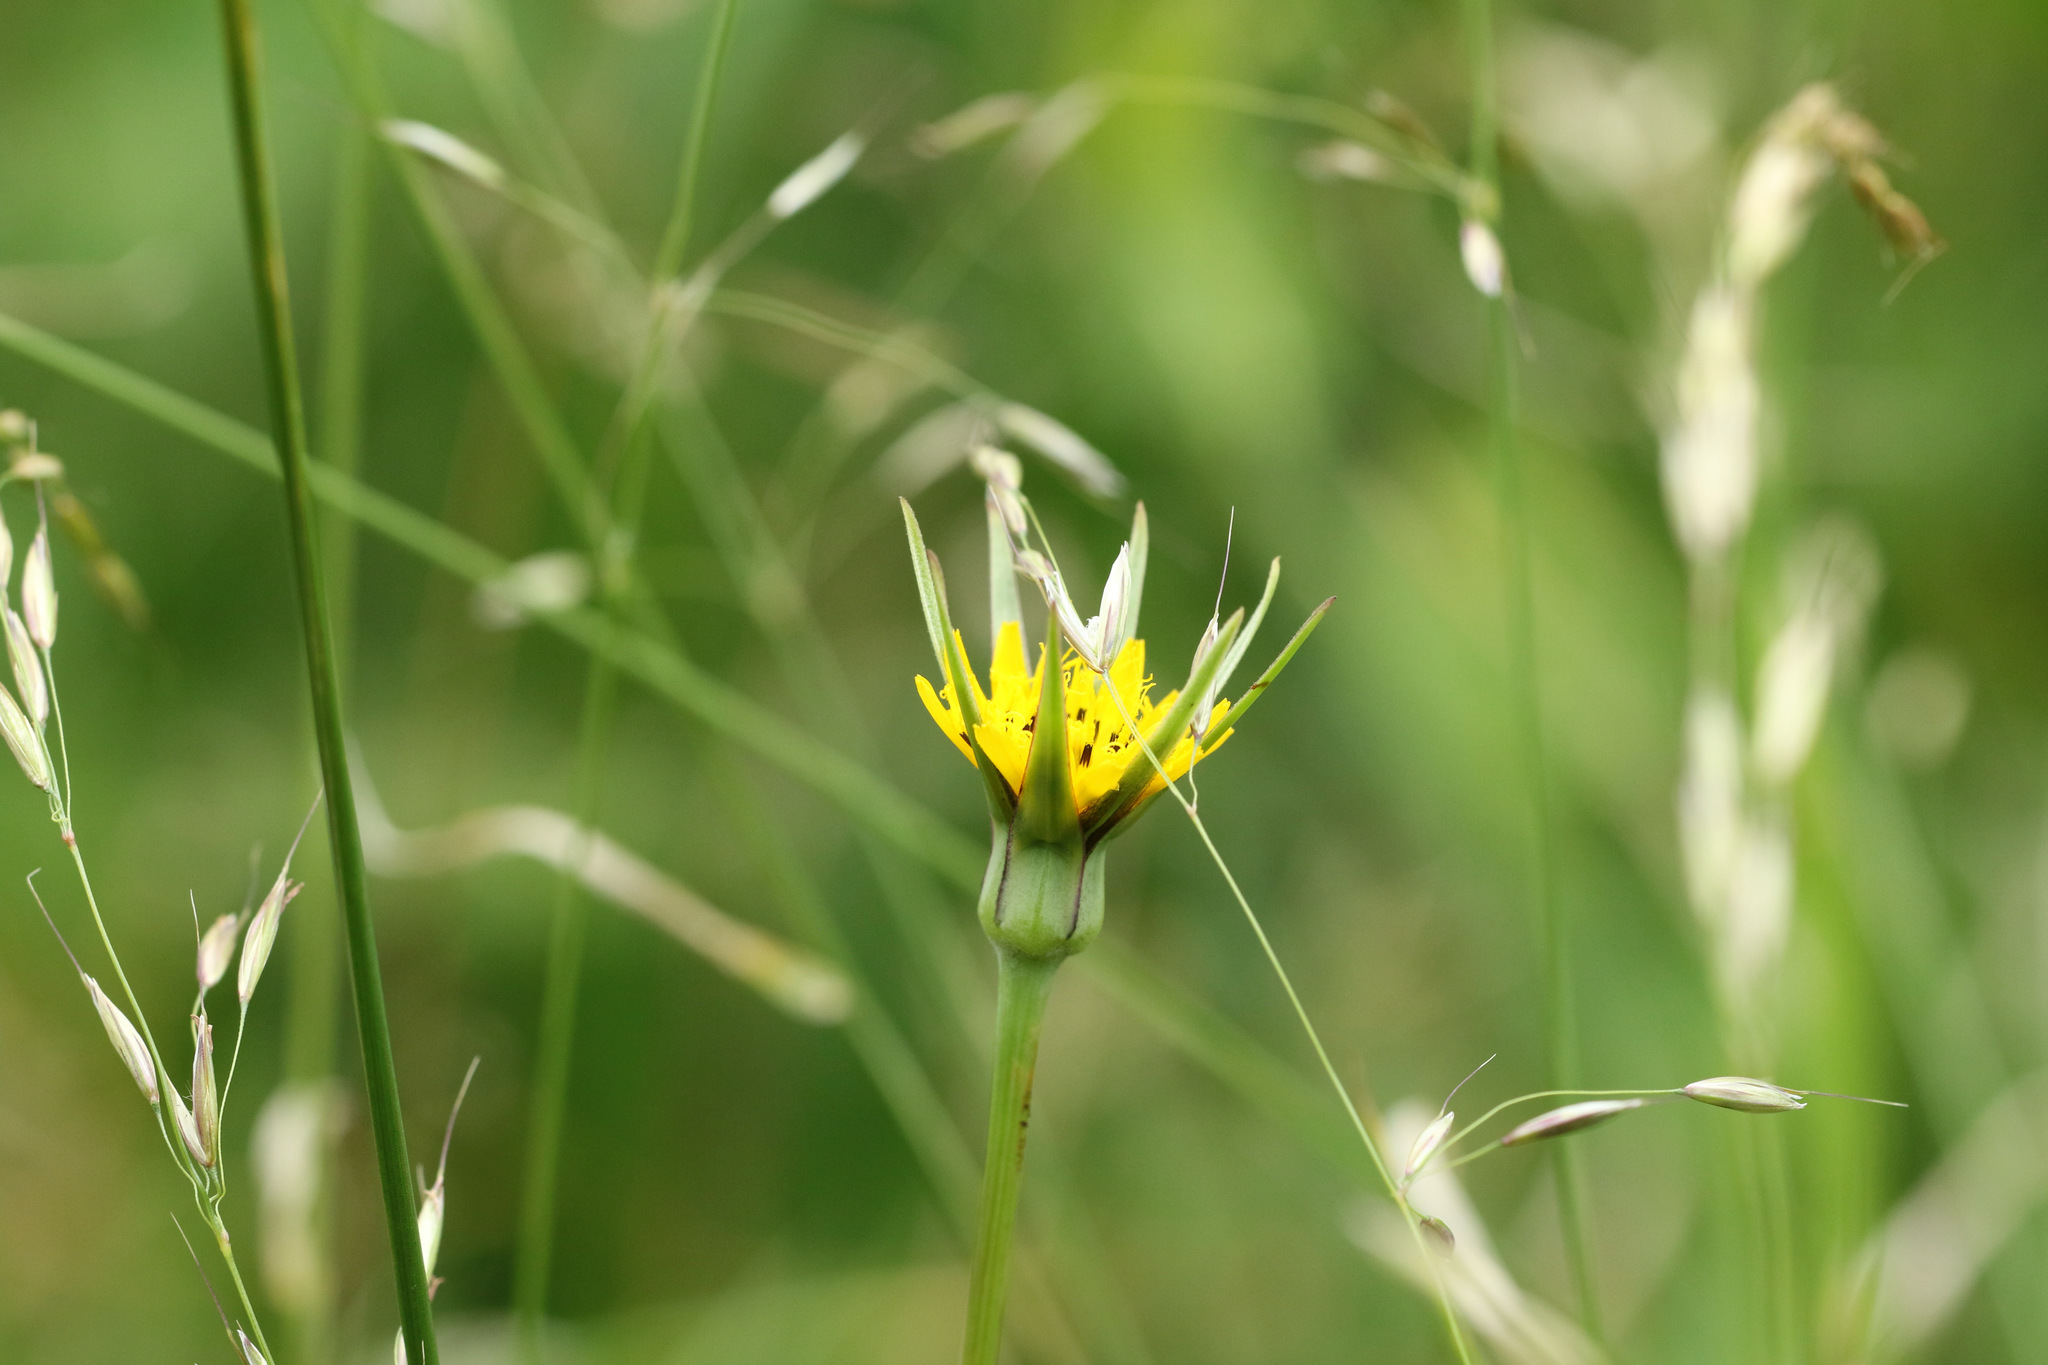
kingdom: Plantae
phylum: Tracheophyta
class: Magnoliopsida
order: Asterales
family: Asteraceae
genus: Tragopogon
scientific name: Tragopogon pratensis
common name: Goat's-beard
